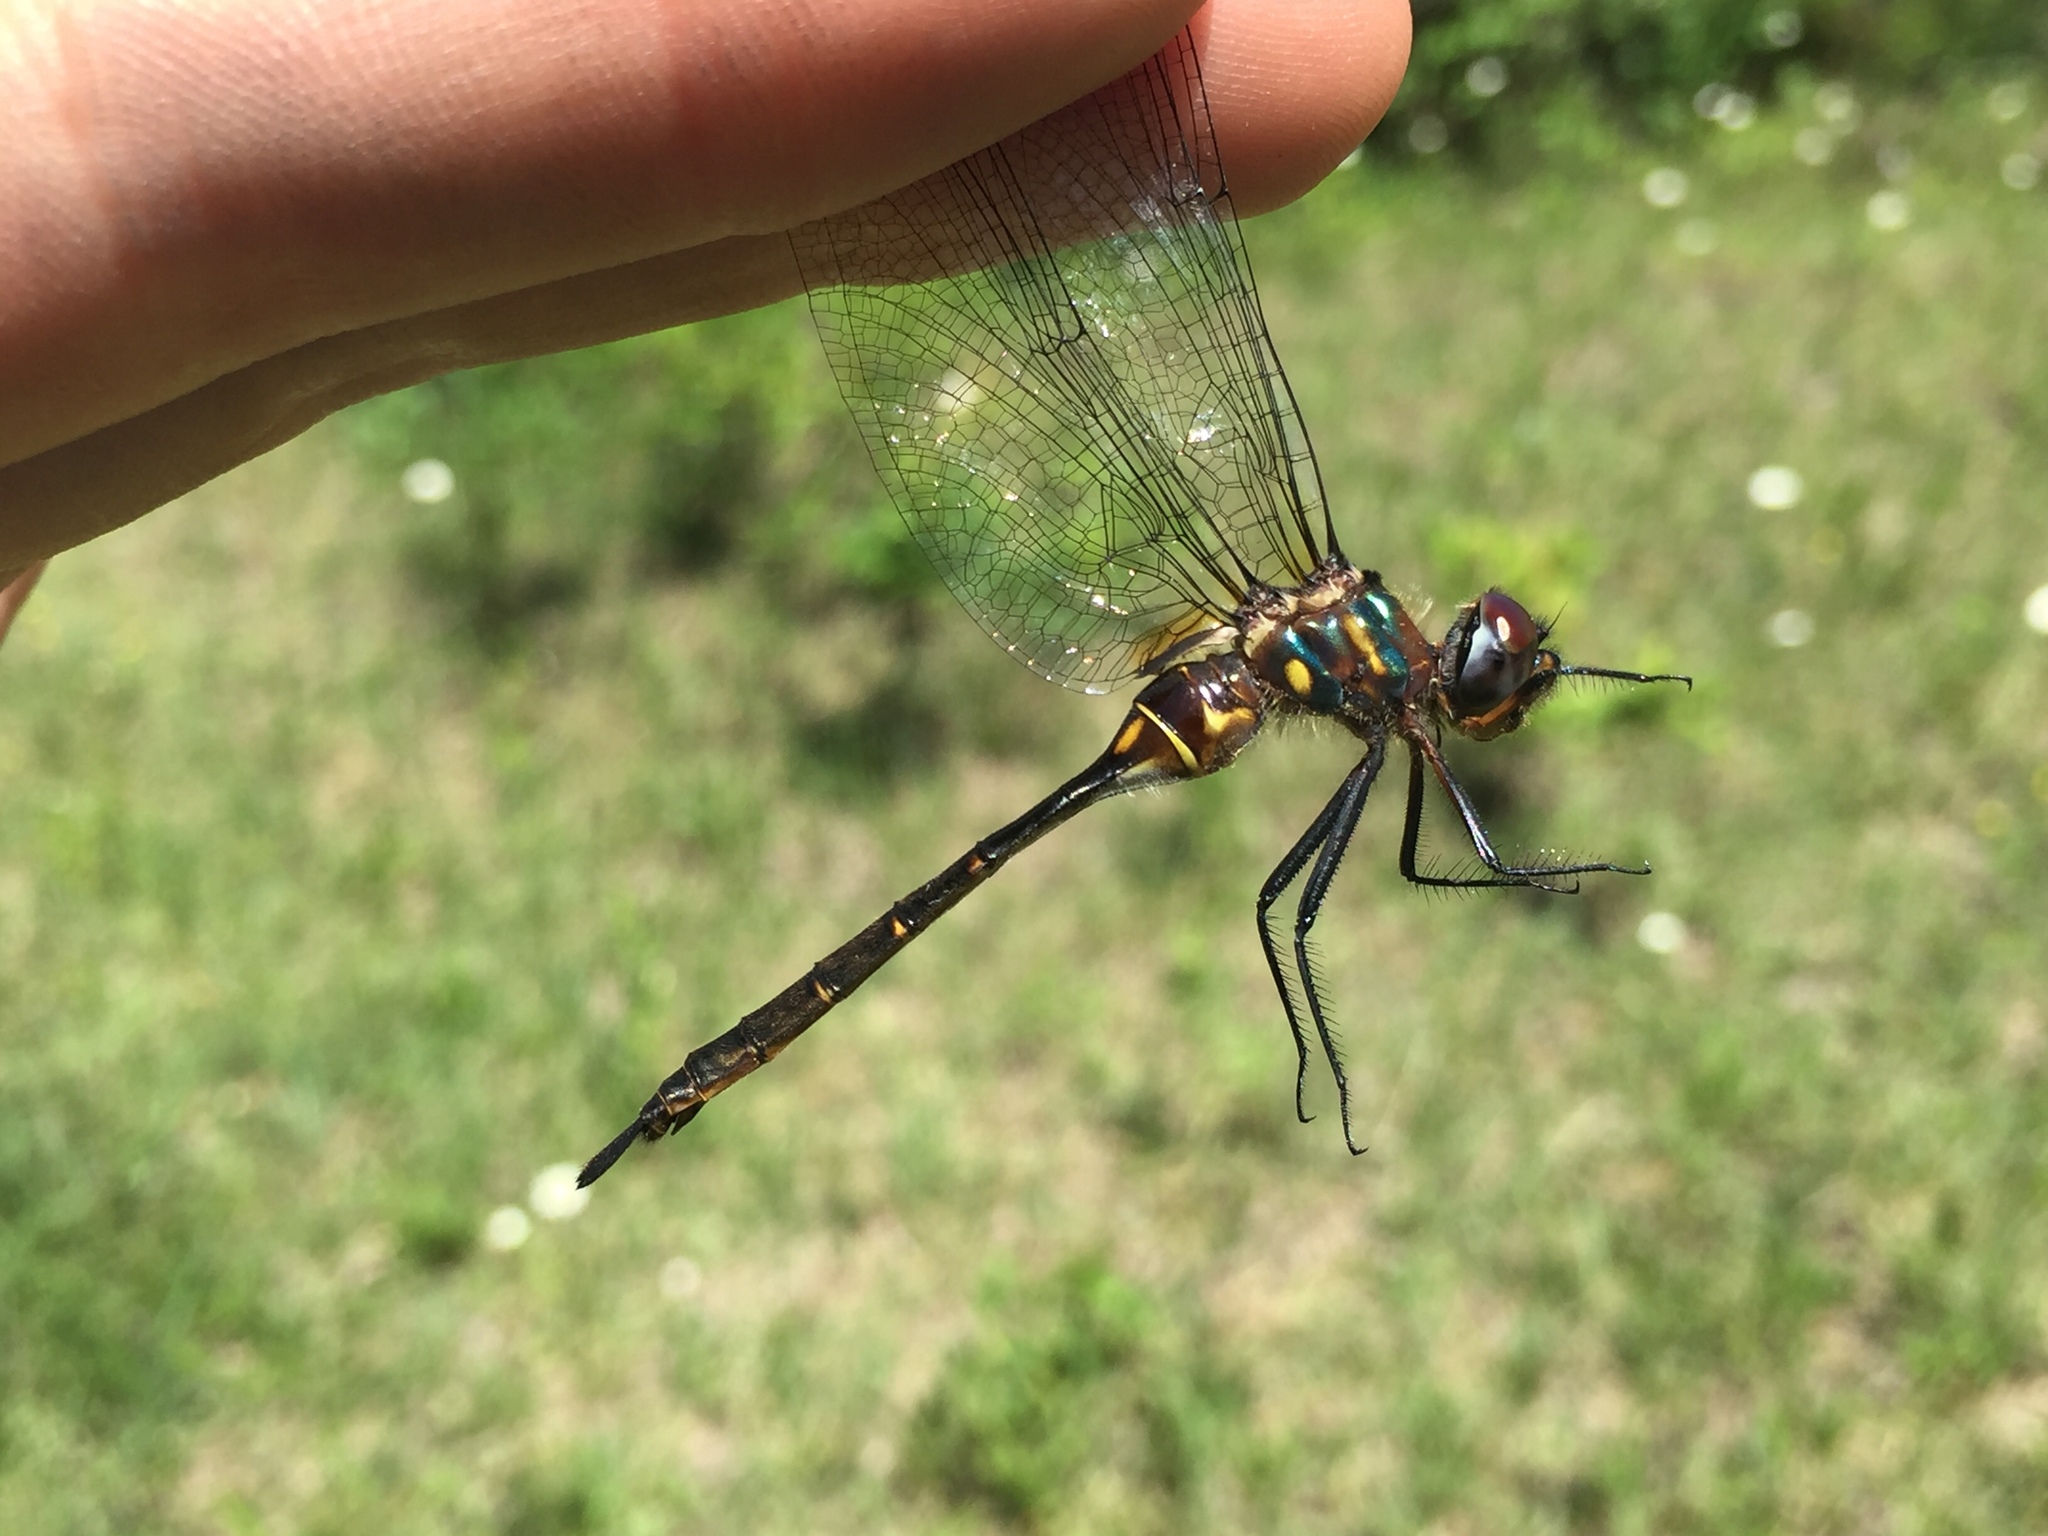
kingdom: Animalia
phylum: Arthropoda
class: Insecta
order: Odonata
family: Corduliidae
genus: Somatochlora
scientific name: Somatochlora walshii
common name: Brush-tipped emerald
